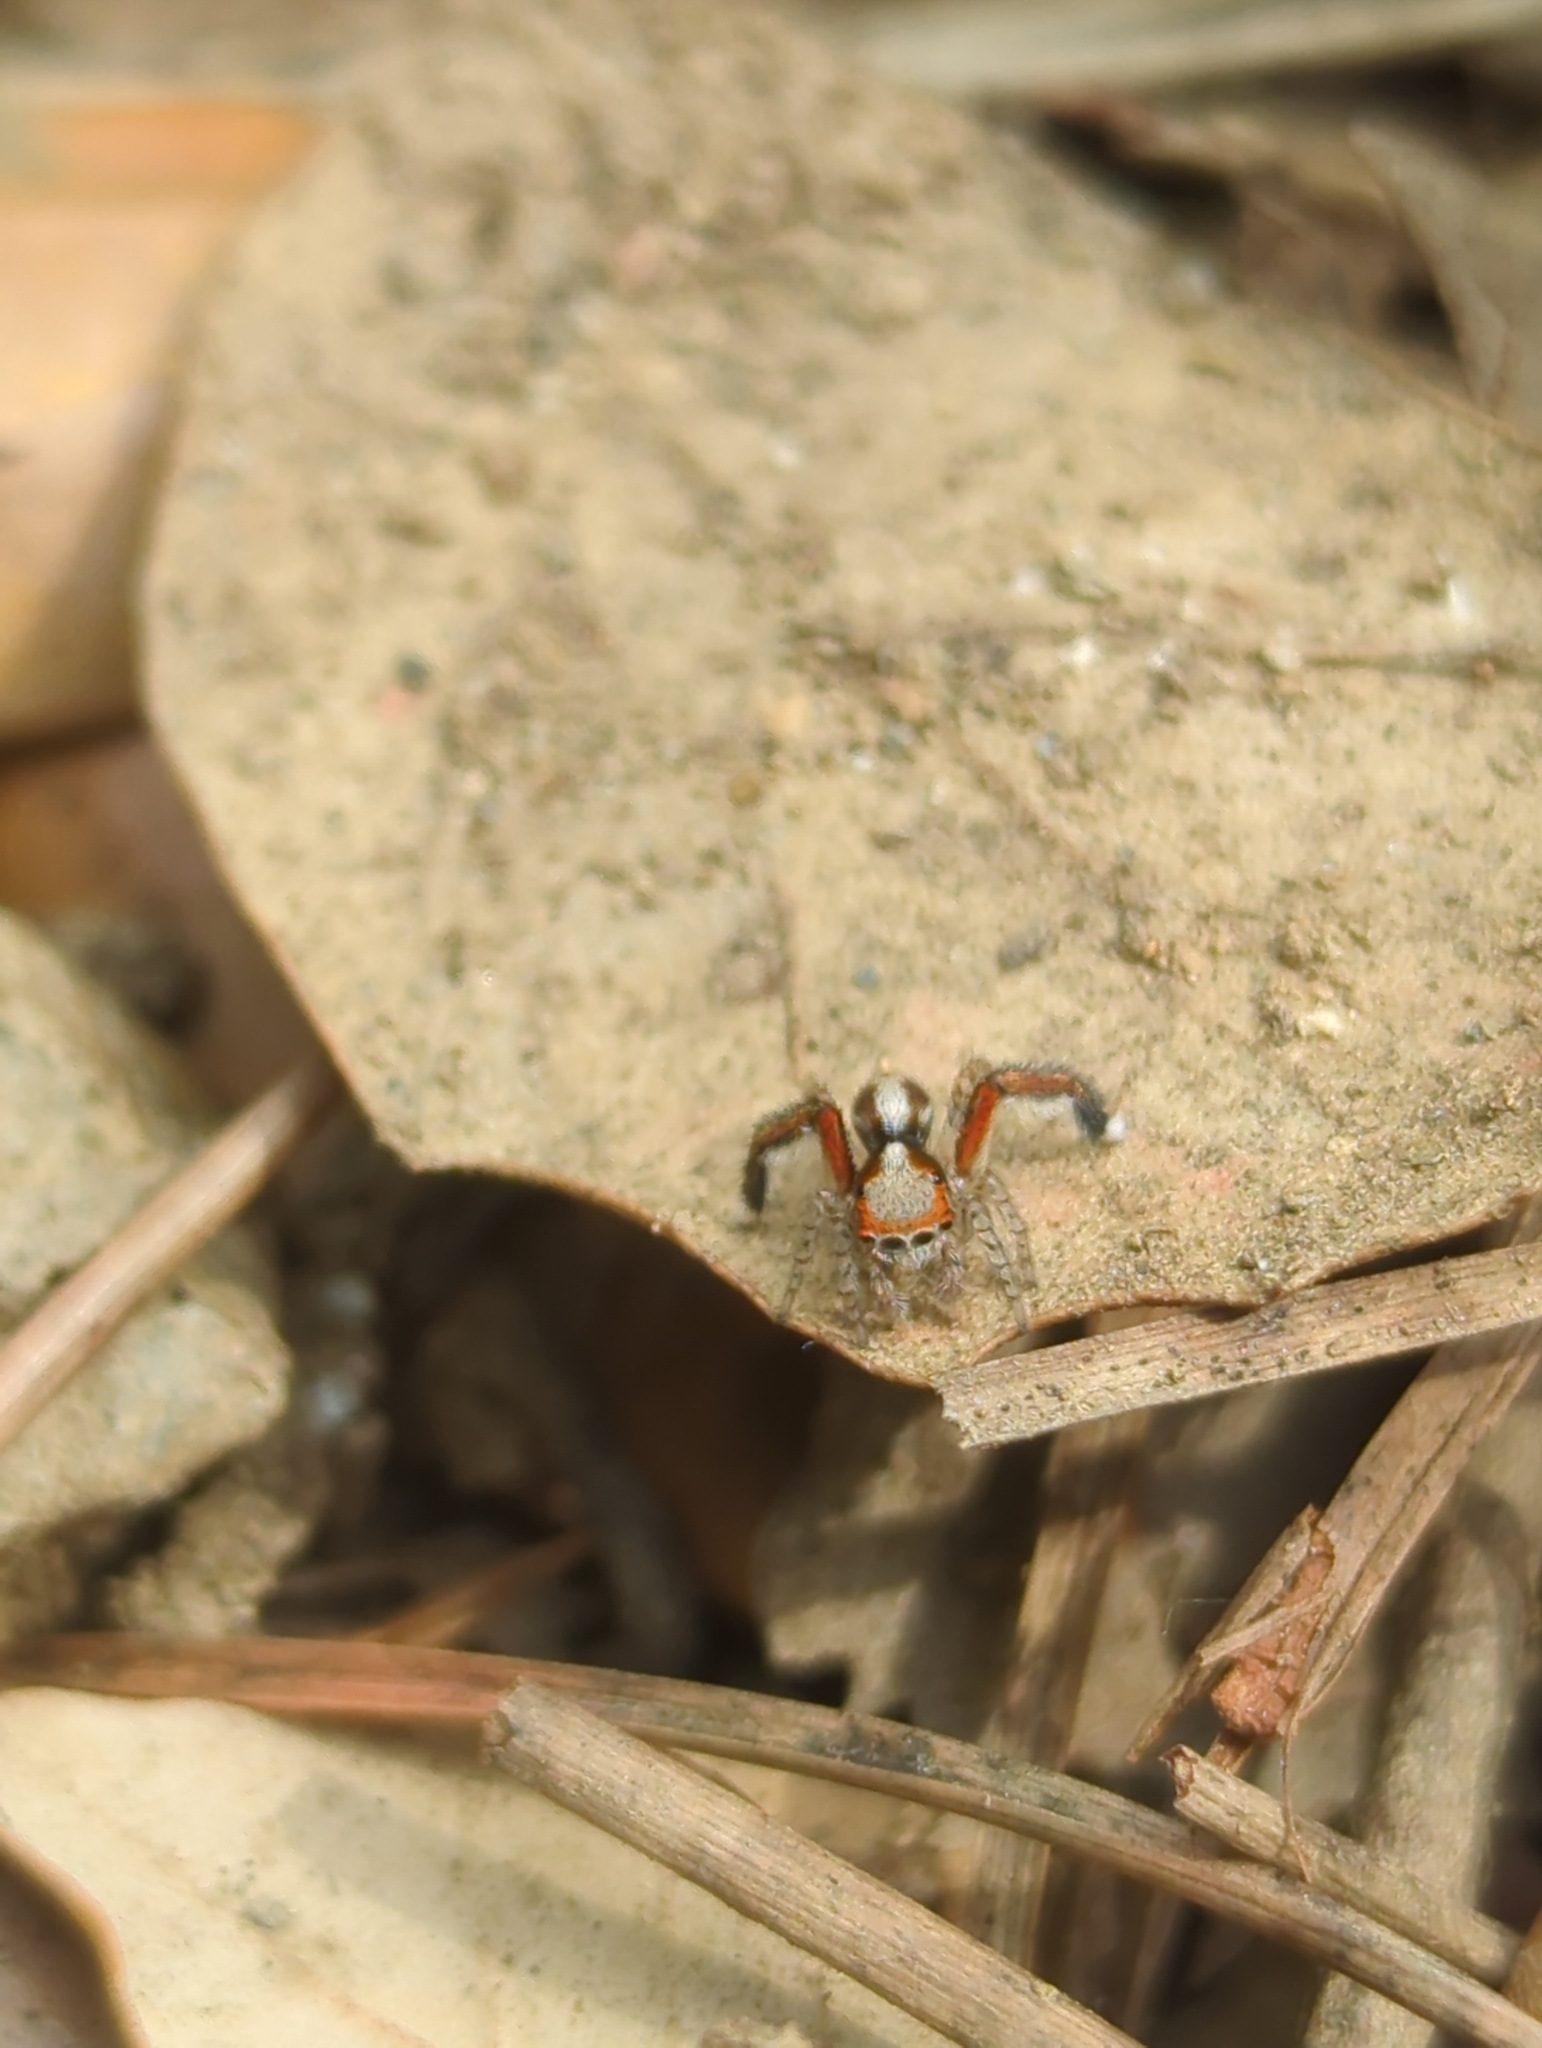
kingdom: Animalia
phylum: Arthropoda
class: Arachnida
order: Araneae
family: Salticidae
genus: Saitis
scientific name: Saitis barbipes
